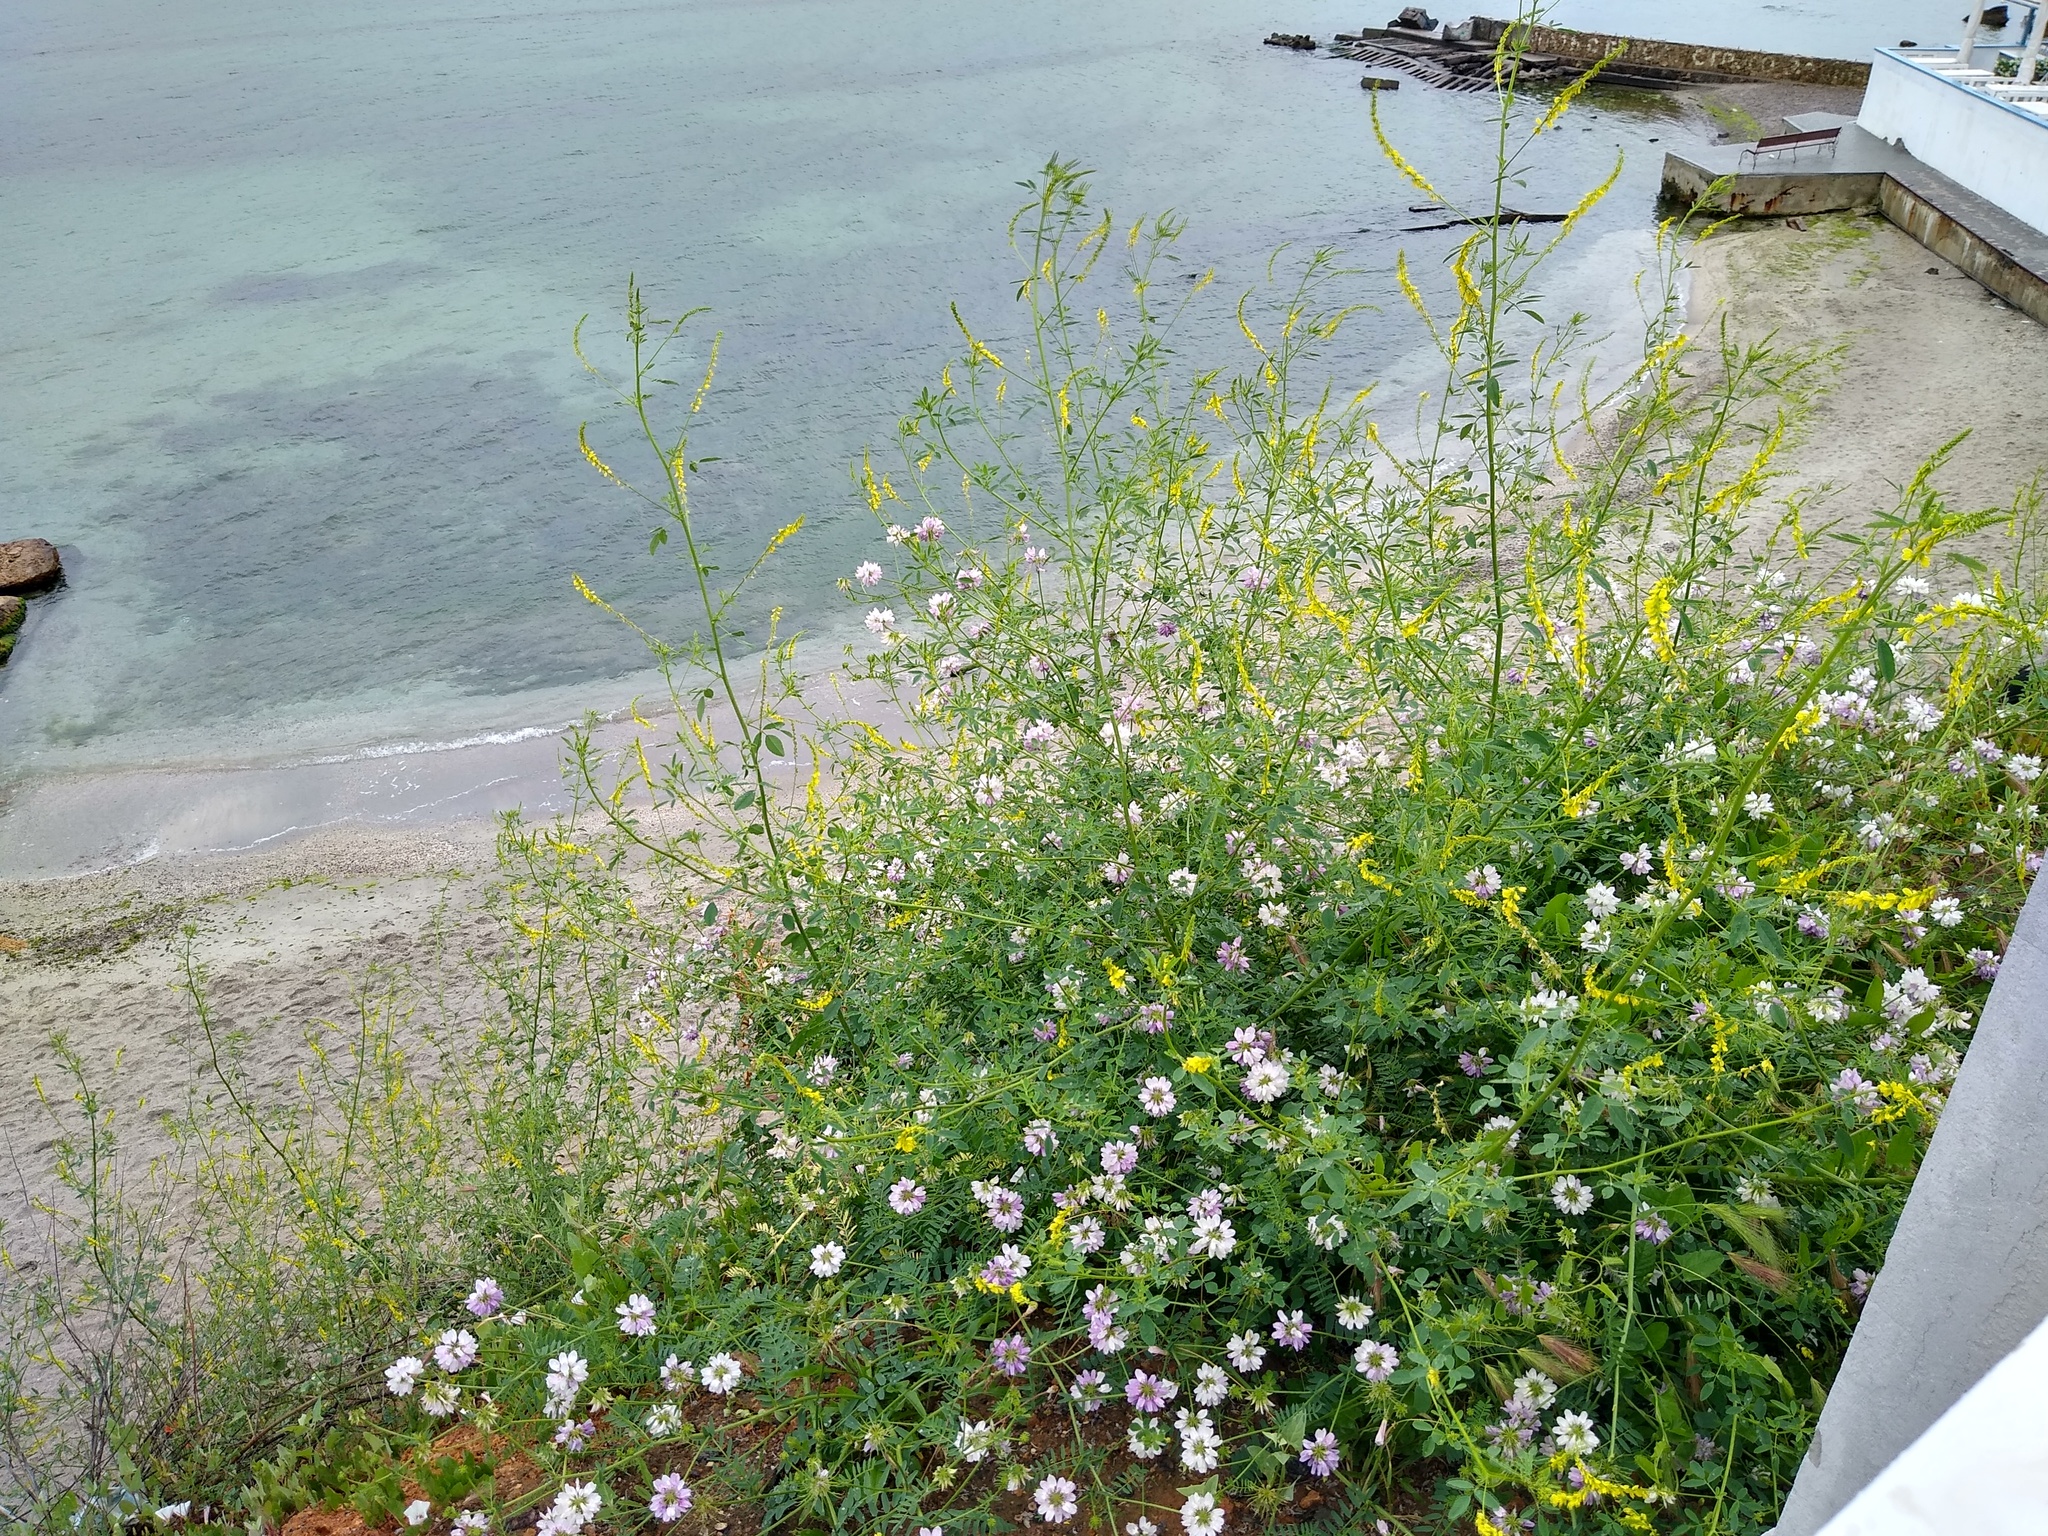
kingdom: Plantae
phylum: Tracheophyta
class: Magnoliopsida
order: Fabales
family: Fabaceae
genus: Melilotus
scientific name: Melilotus officinalis
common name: Sweetclover
